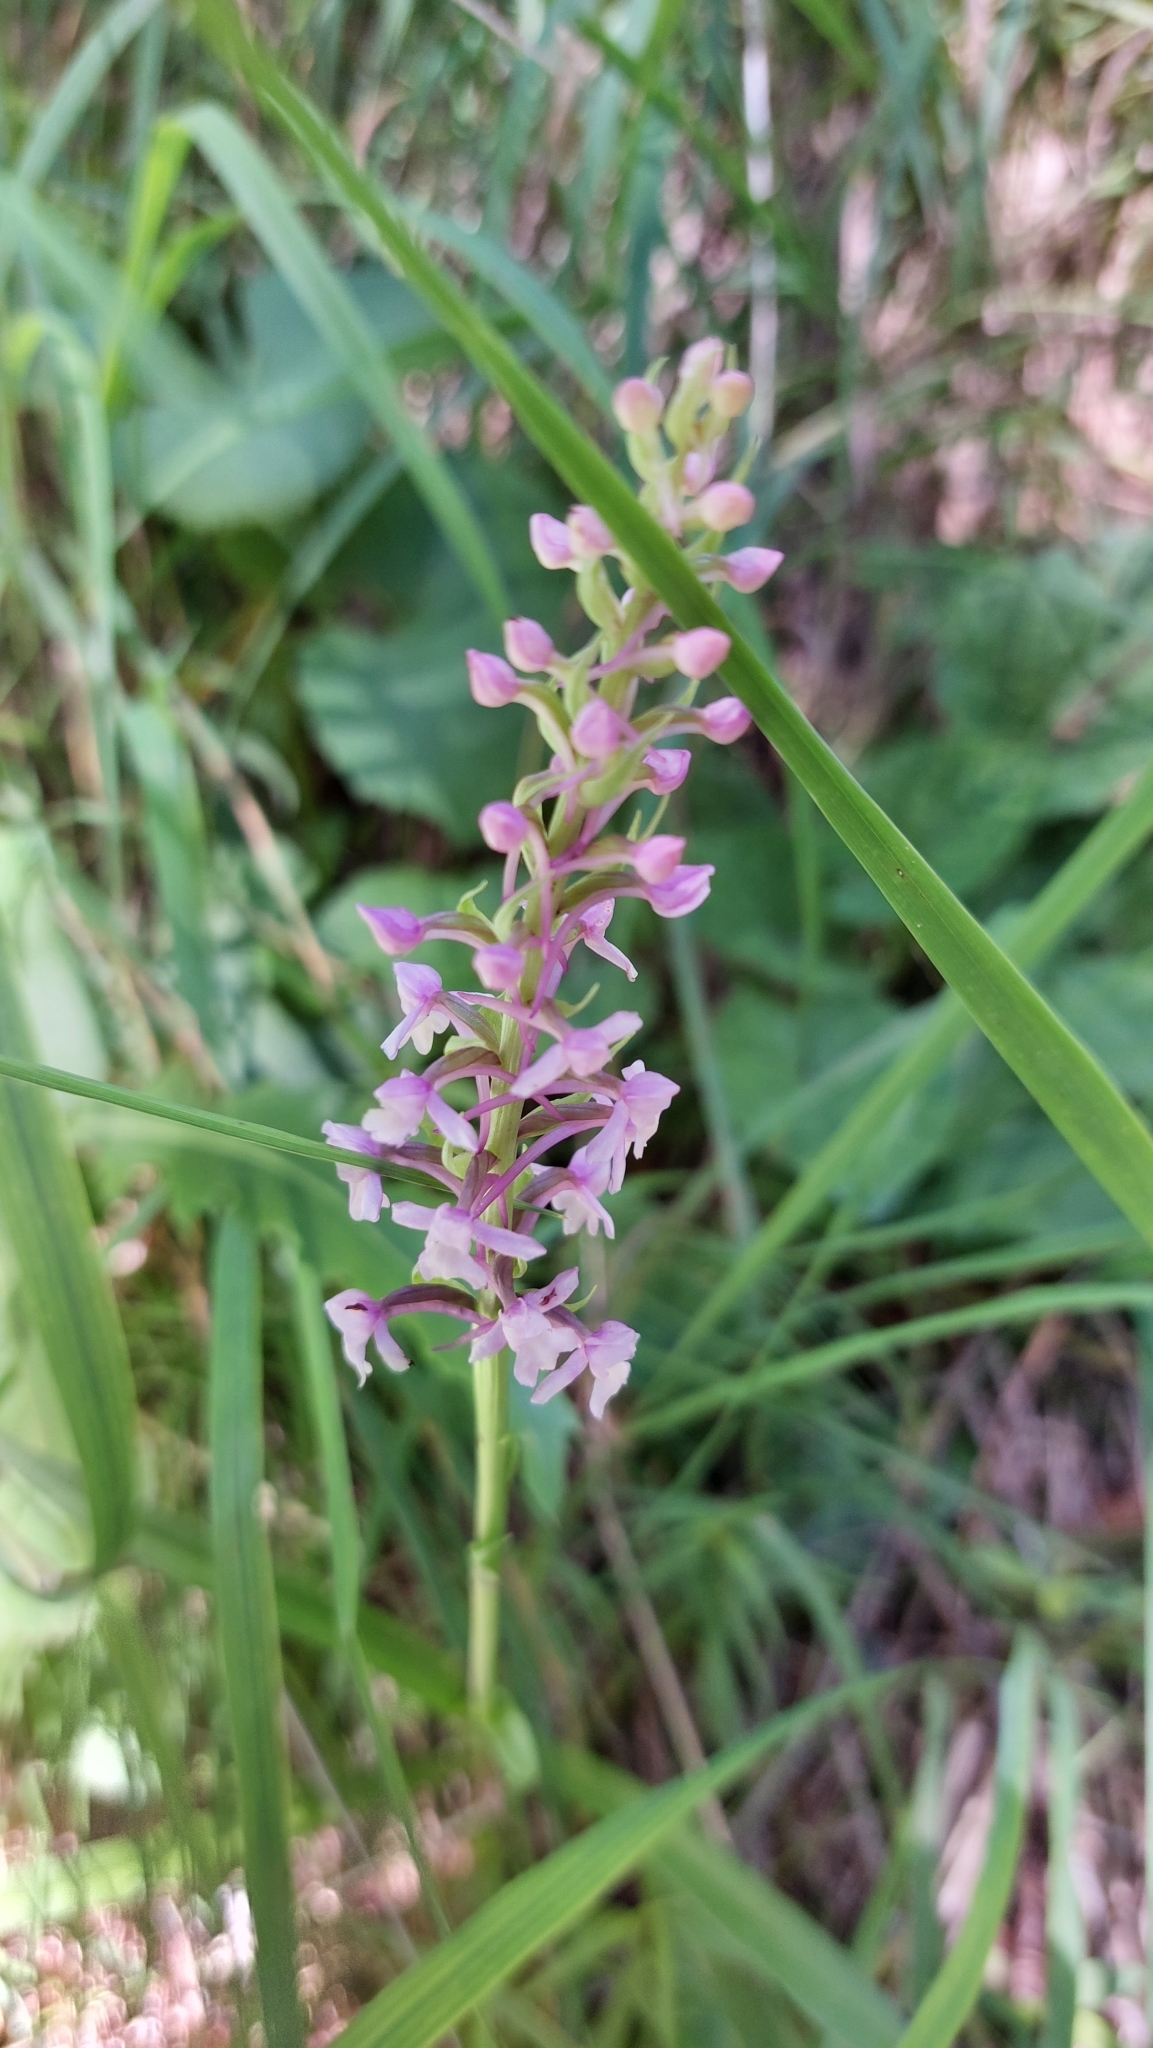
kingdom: Plantae
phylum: Tracheophyta
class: Liliopsida
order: Asparagales
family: Orchidaceae
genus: Gymnadenia
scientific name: Gymnadenia conopsea
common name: Fragrant orchid
